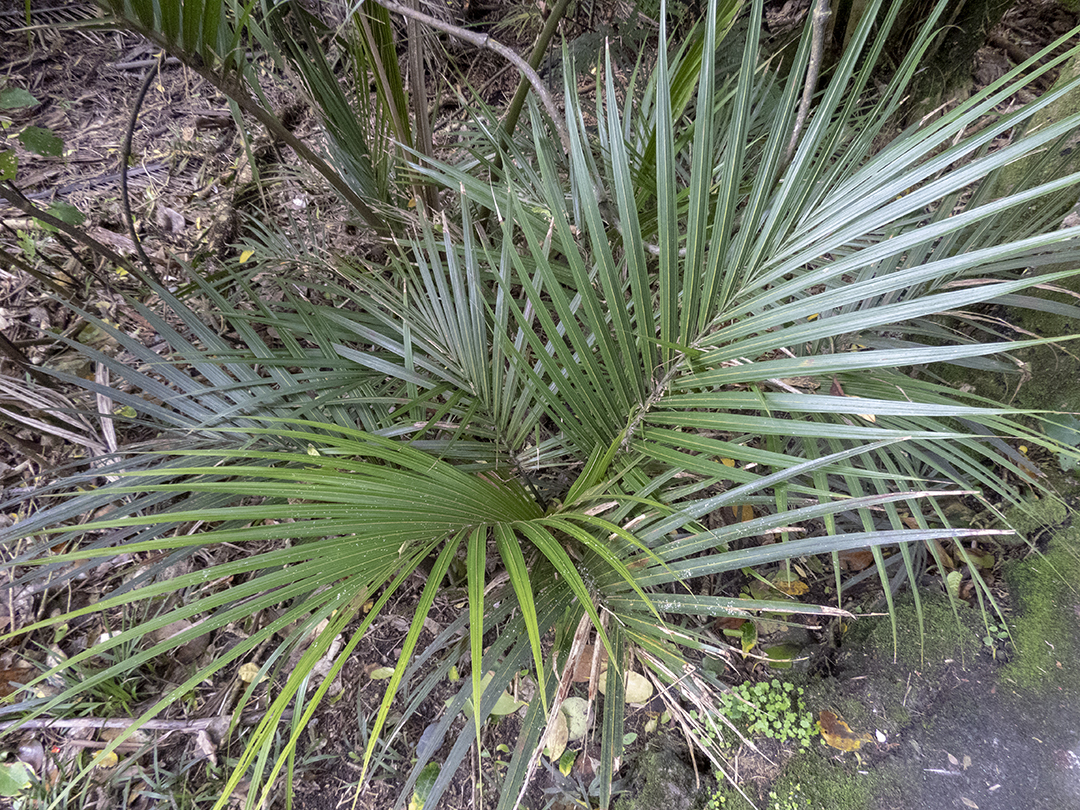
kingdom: Plantae
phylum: Tracheophyta
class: Liliopsida
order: Arecales
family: Arecaceae
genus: Rhopalostylis
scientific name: Rhopalostylis sapida
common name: Feather-duster palm
